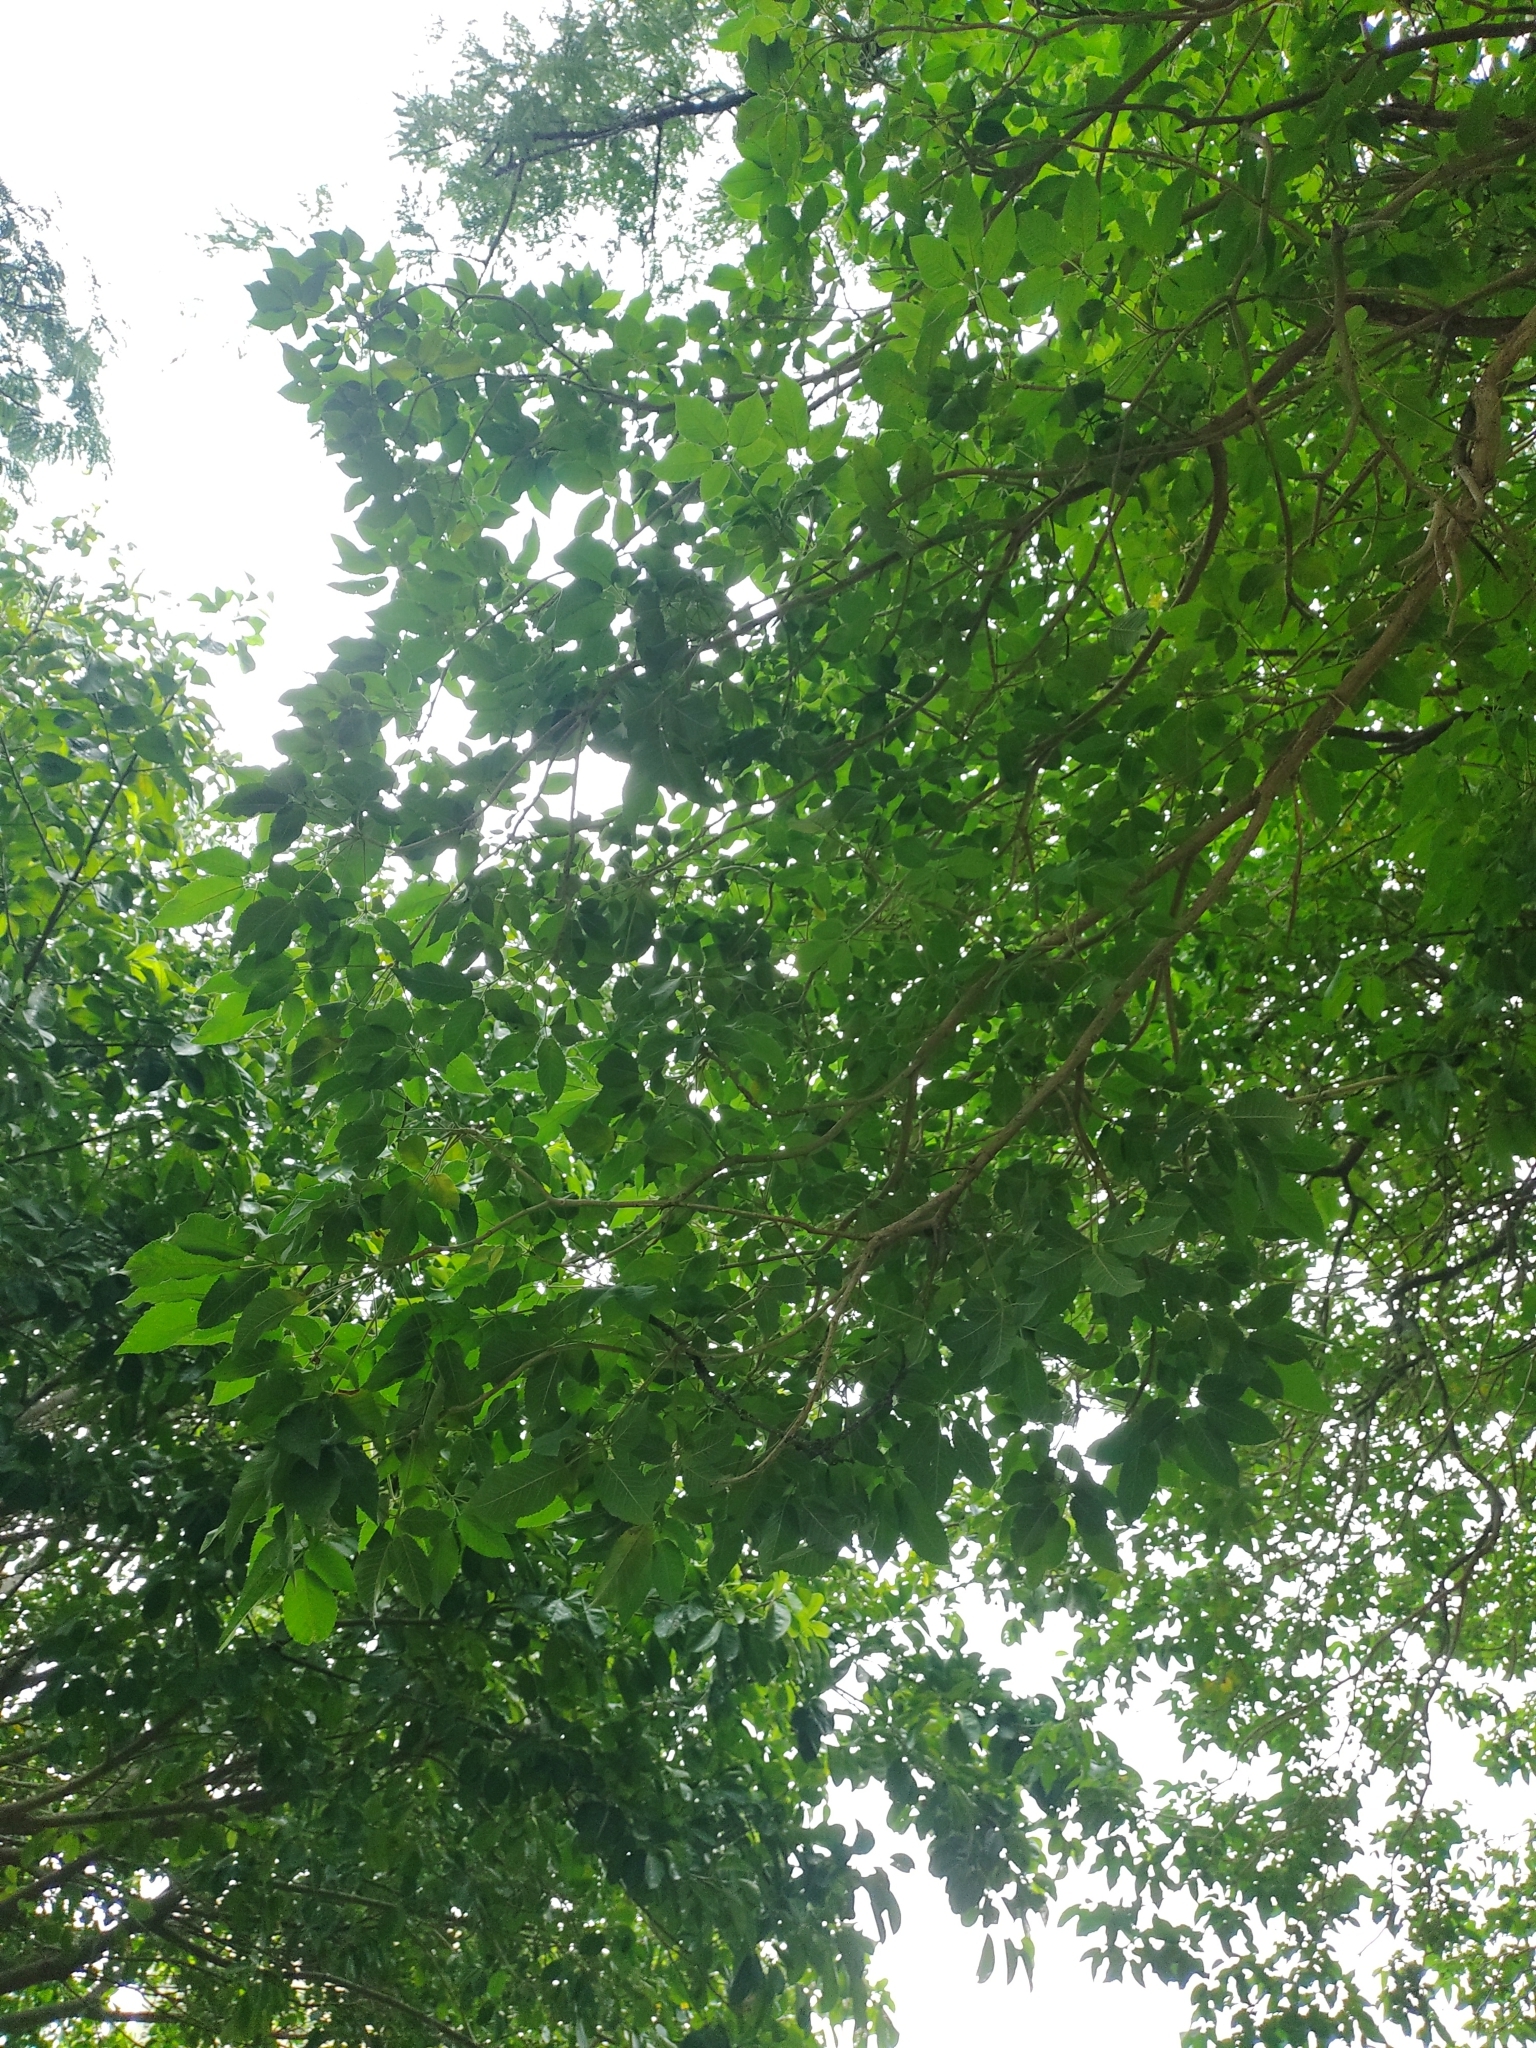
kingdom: Plantae
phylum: Tracheophyta
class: Magnoliopsida
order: Lamiales
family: Bignoniaceae
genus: Roseodendron
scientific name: Roseodendron chryseum
